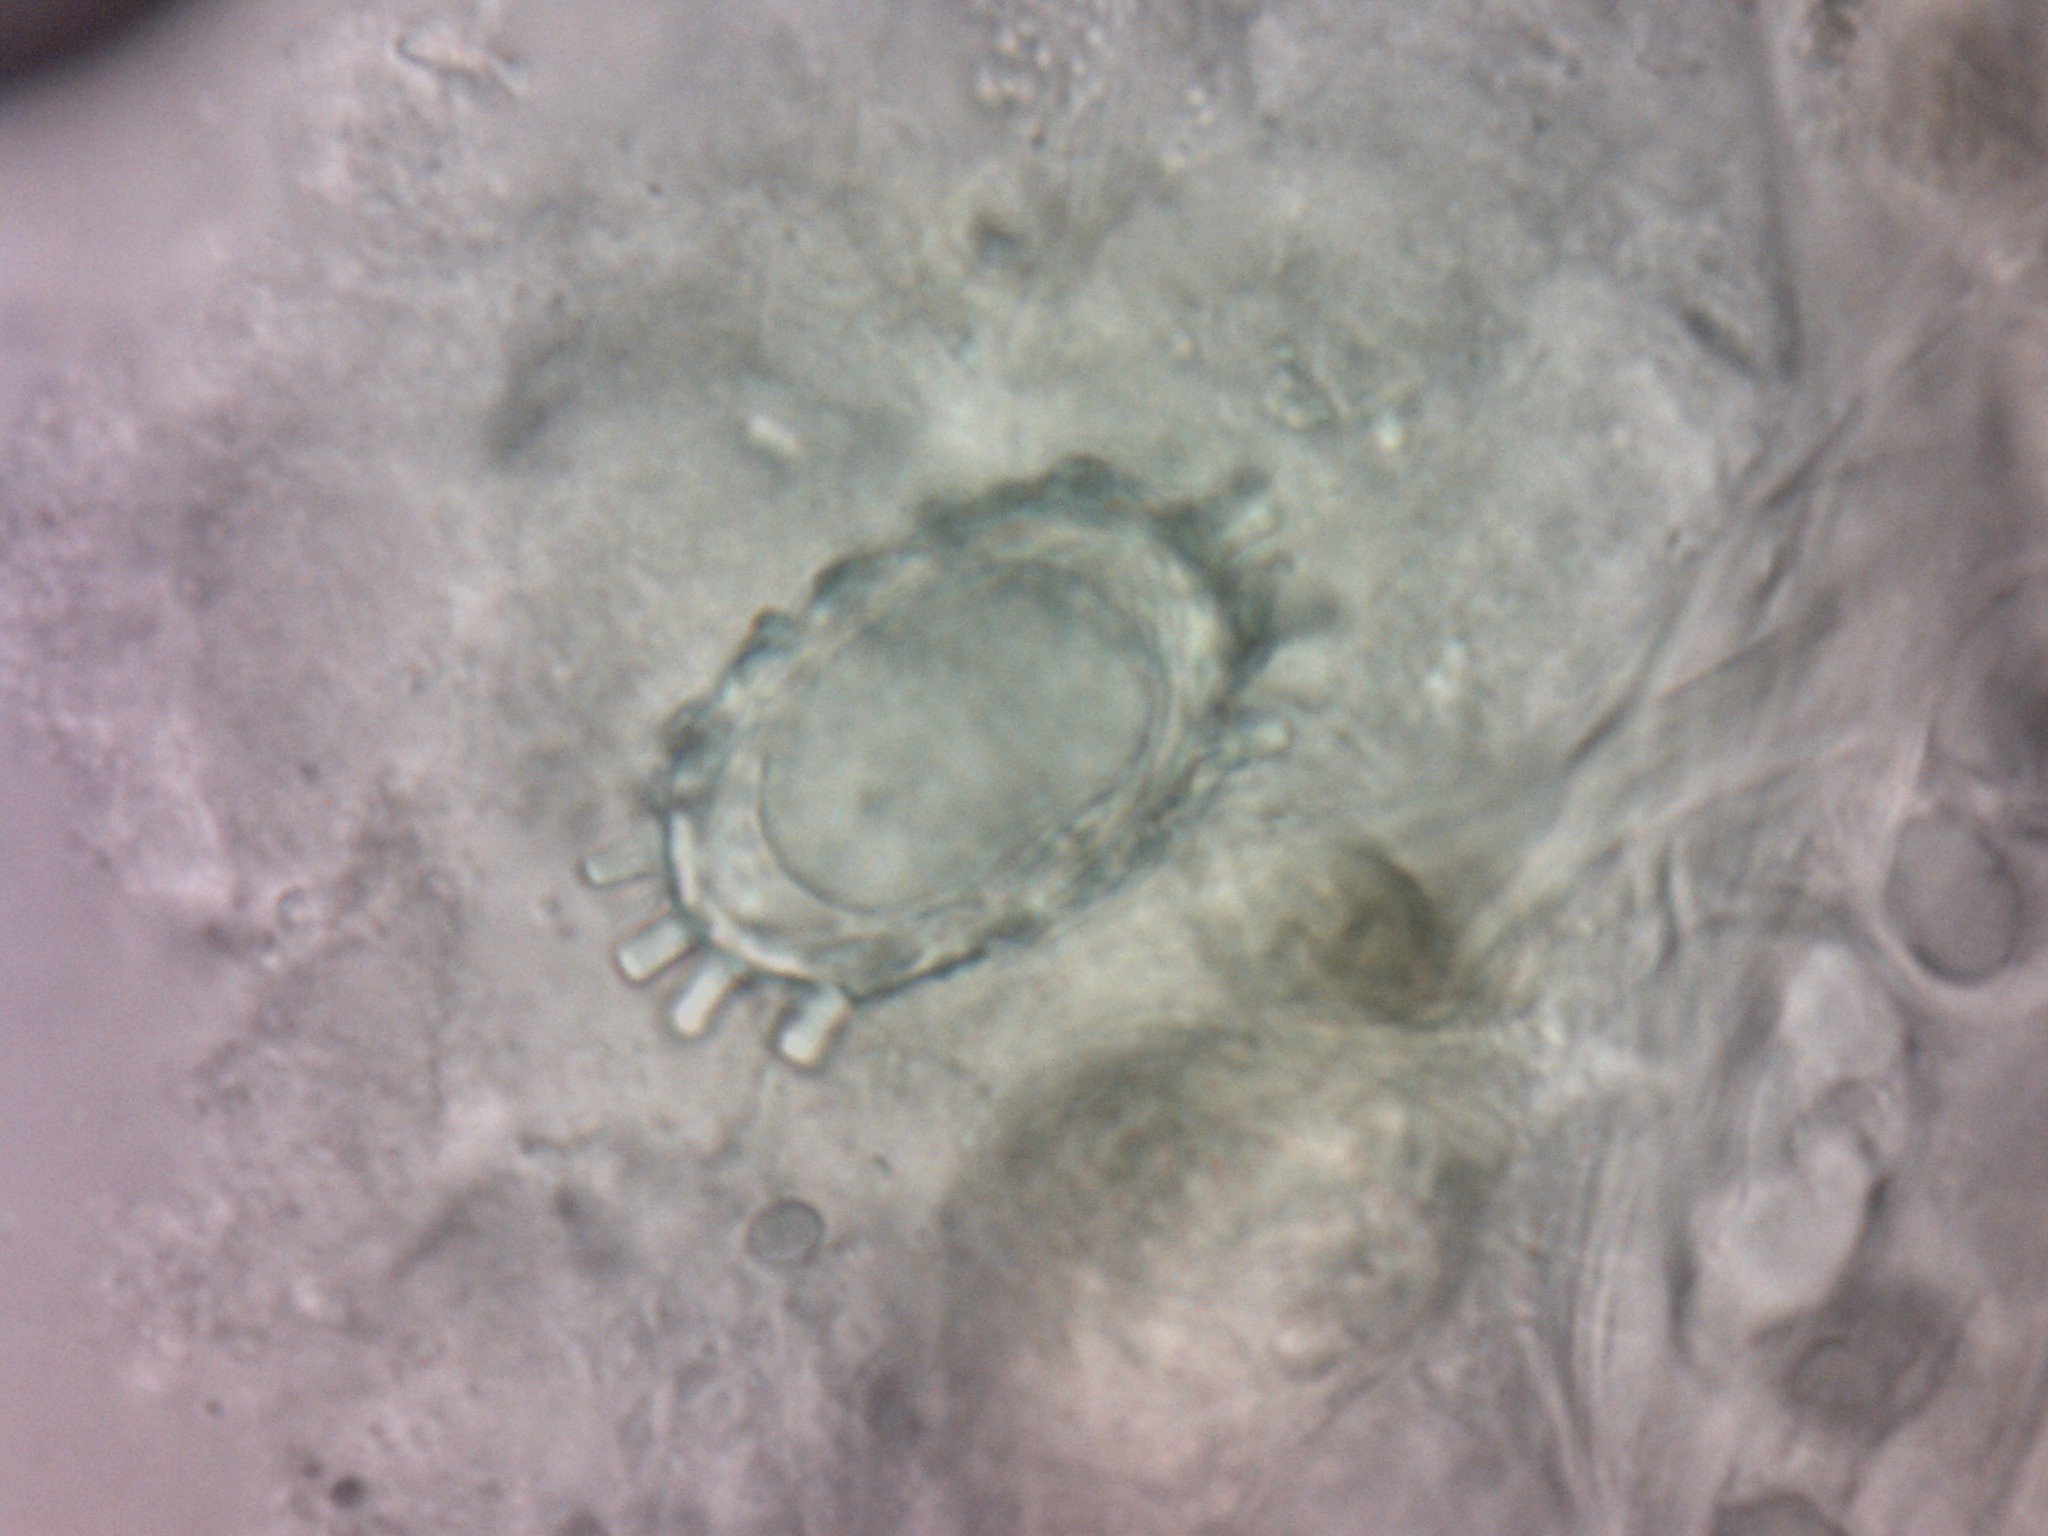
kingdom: Fungi
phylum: Ascomycota
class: Pezizomycetes
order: Pezizales
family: Pezizaceae
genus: Pachyella
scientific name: Pachyella adnata
